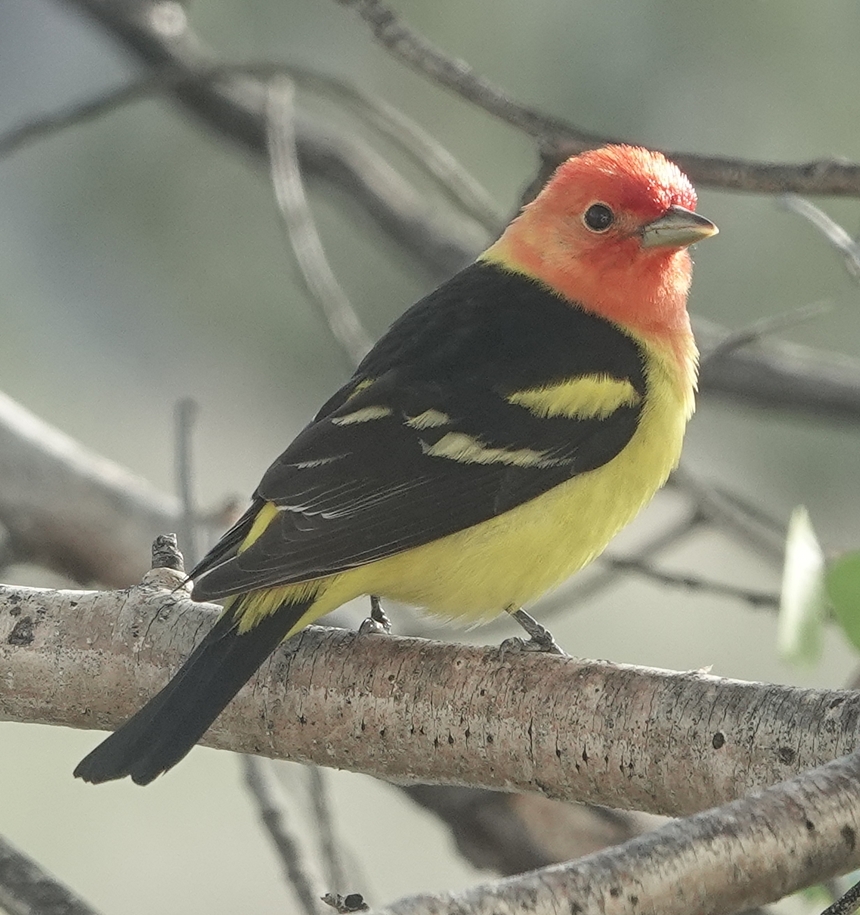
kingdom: Animalia
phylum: Chordata
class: Aves
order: Passeriformes
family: Cardinalidae
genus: Piranga
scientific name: Piranga ludoviciana
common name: Western tanager
